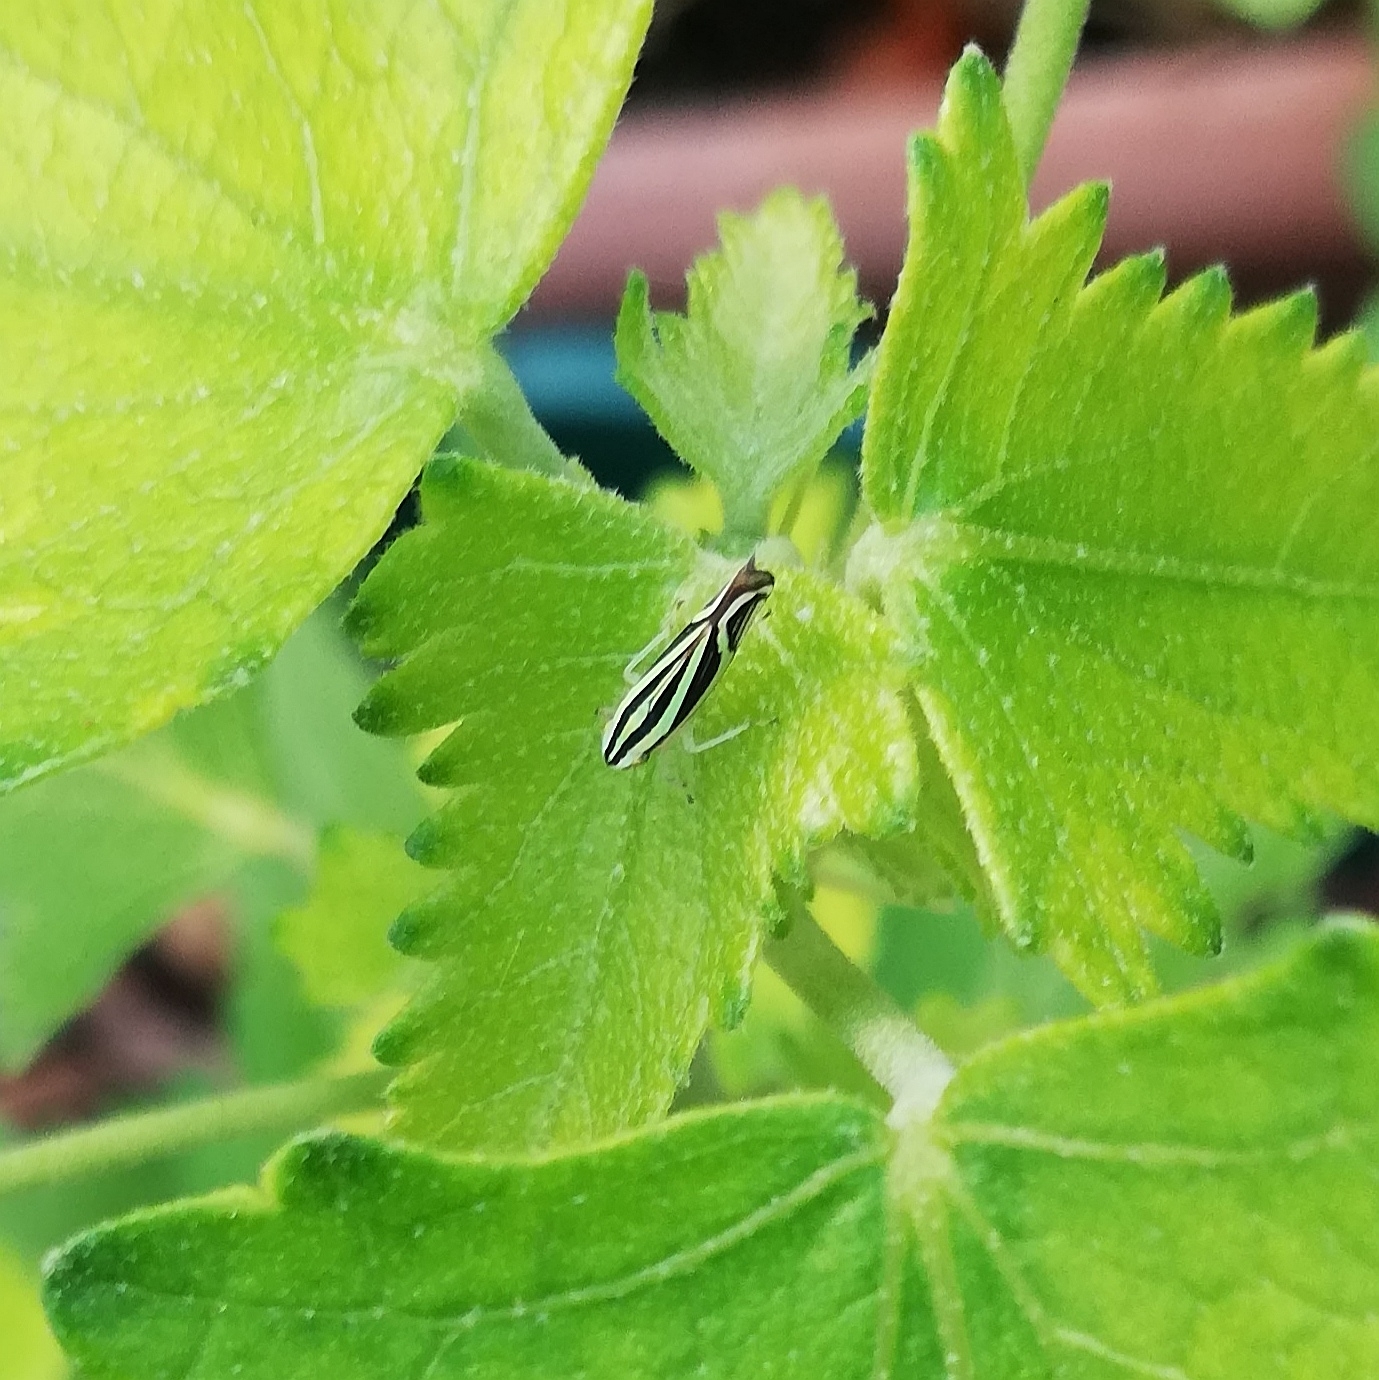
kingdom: Animalia
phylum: Arthropoda
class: Insecta
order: Hemiptera
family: Cicadellidae
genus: Sibovia
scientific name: Sibovia sagata
